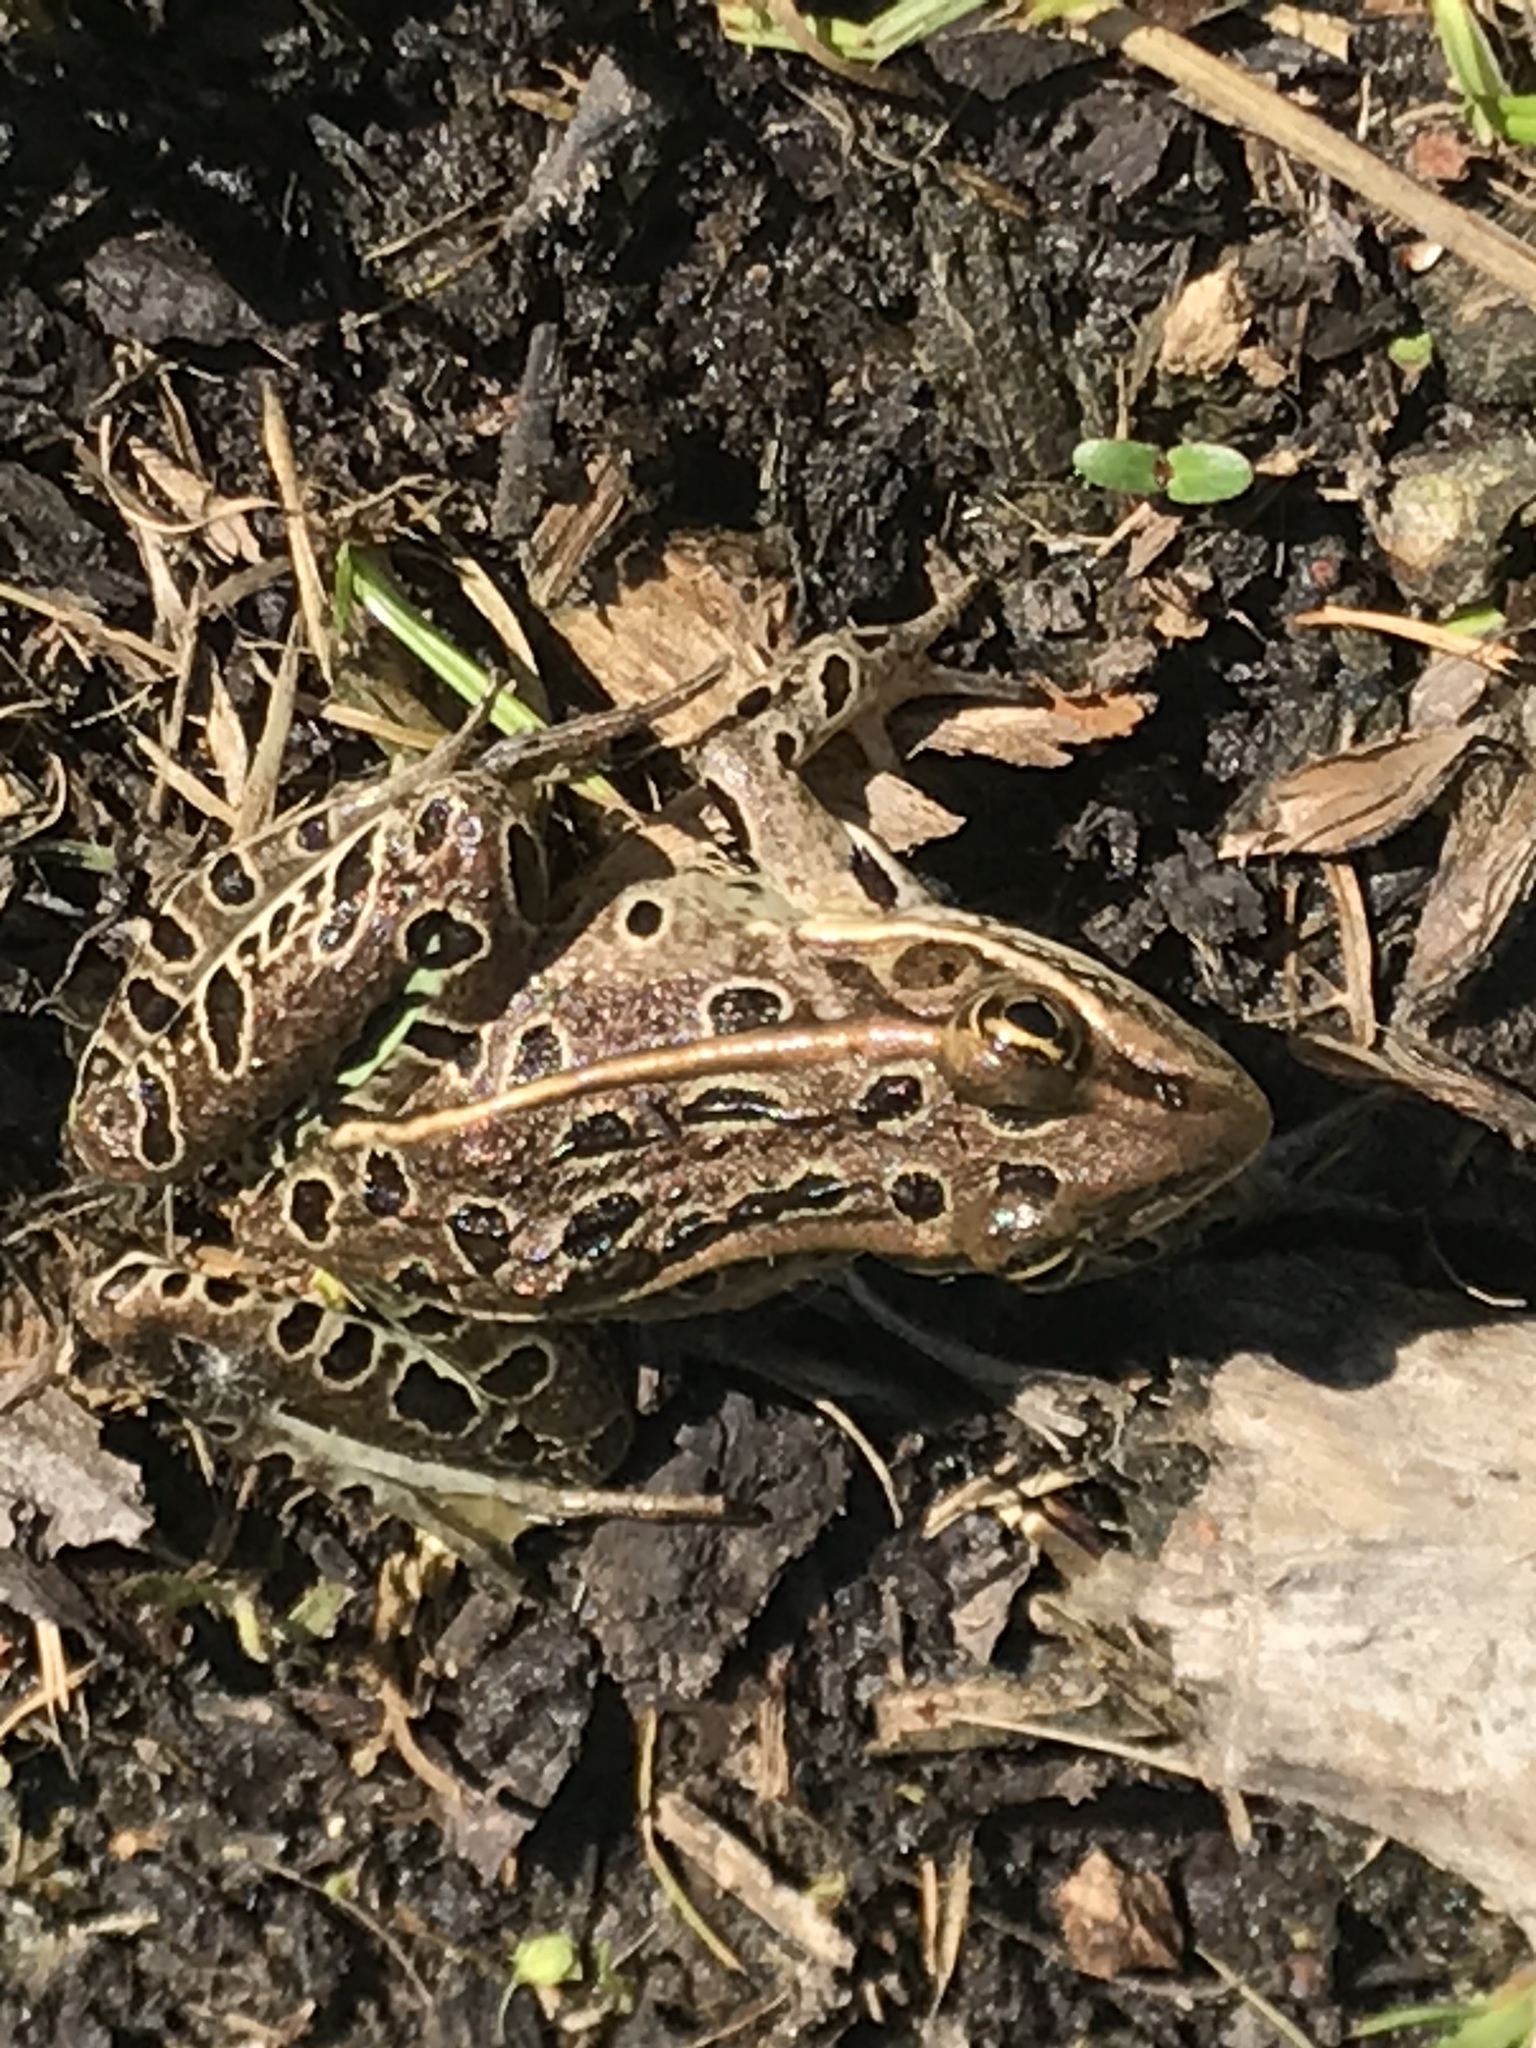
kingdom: Animalia
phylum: Chordata
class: Amphibia
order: Anura
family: Ranidae
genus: Lithobates
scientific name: Lithobates pipiens
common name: Northern leopard frog
